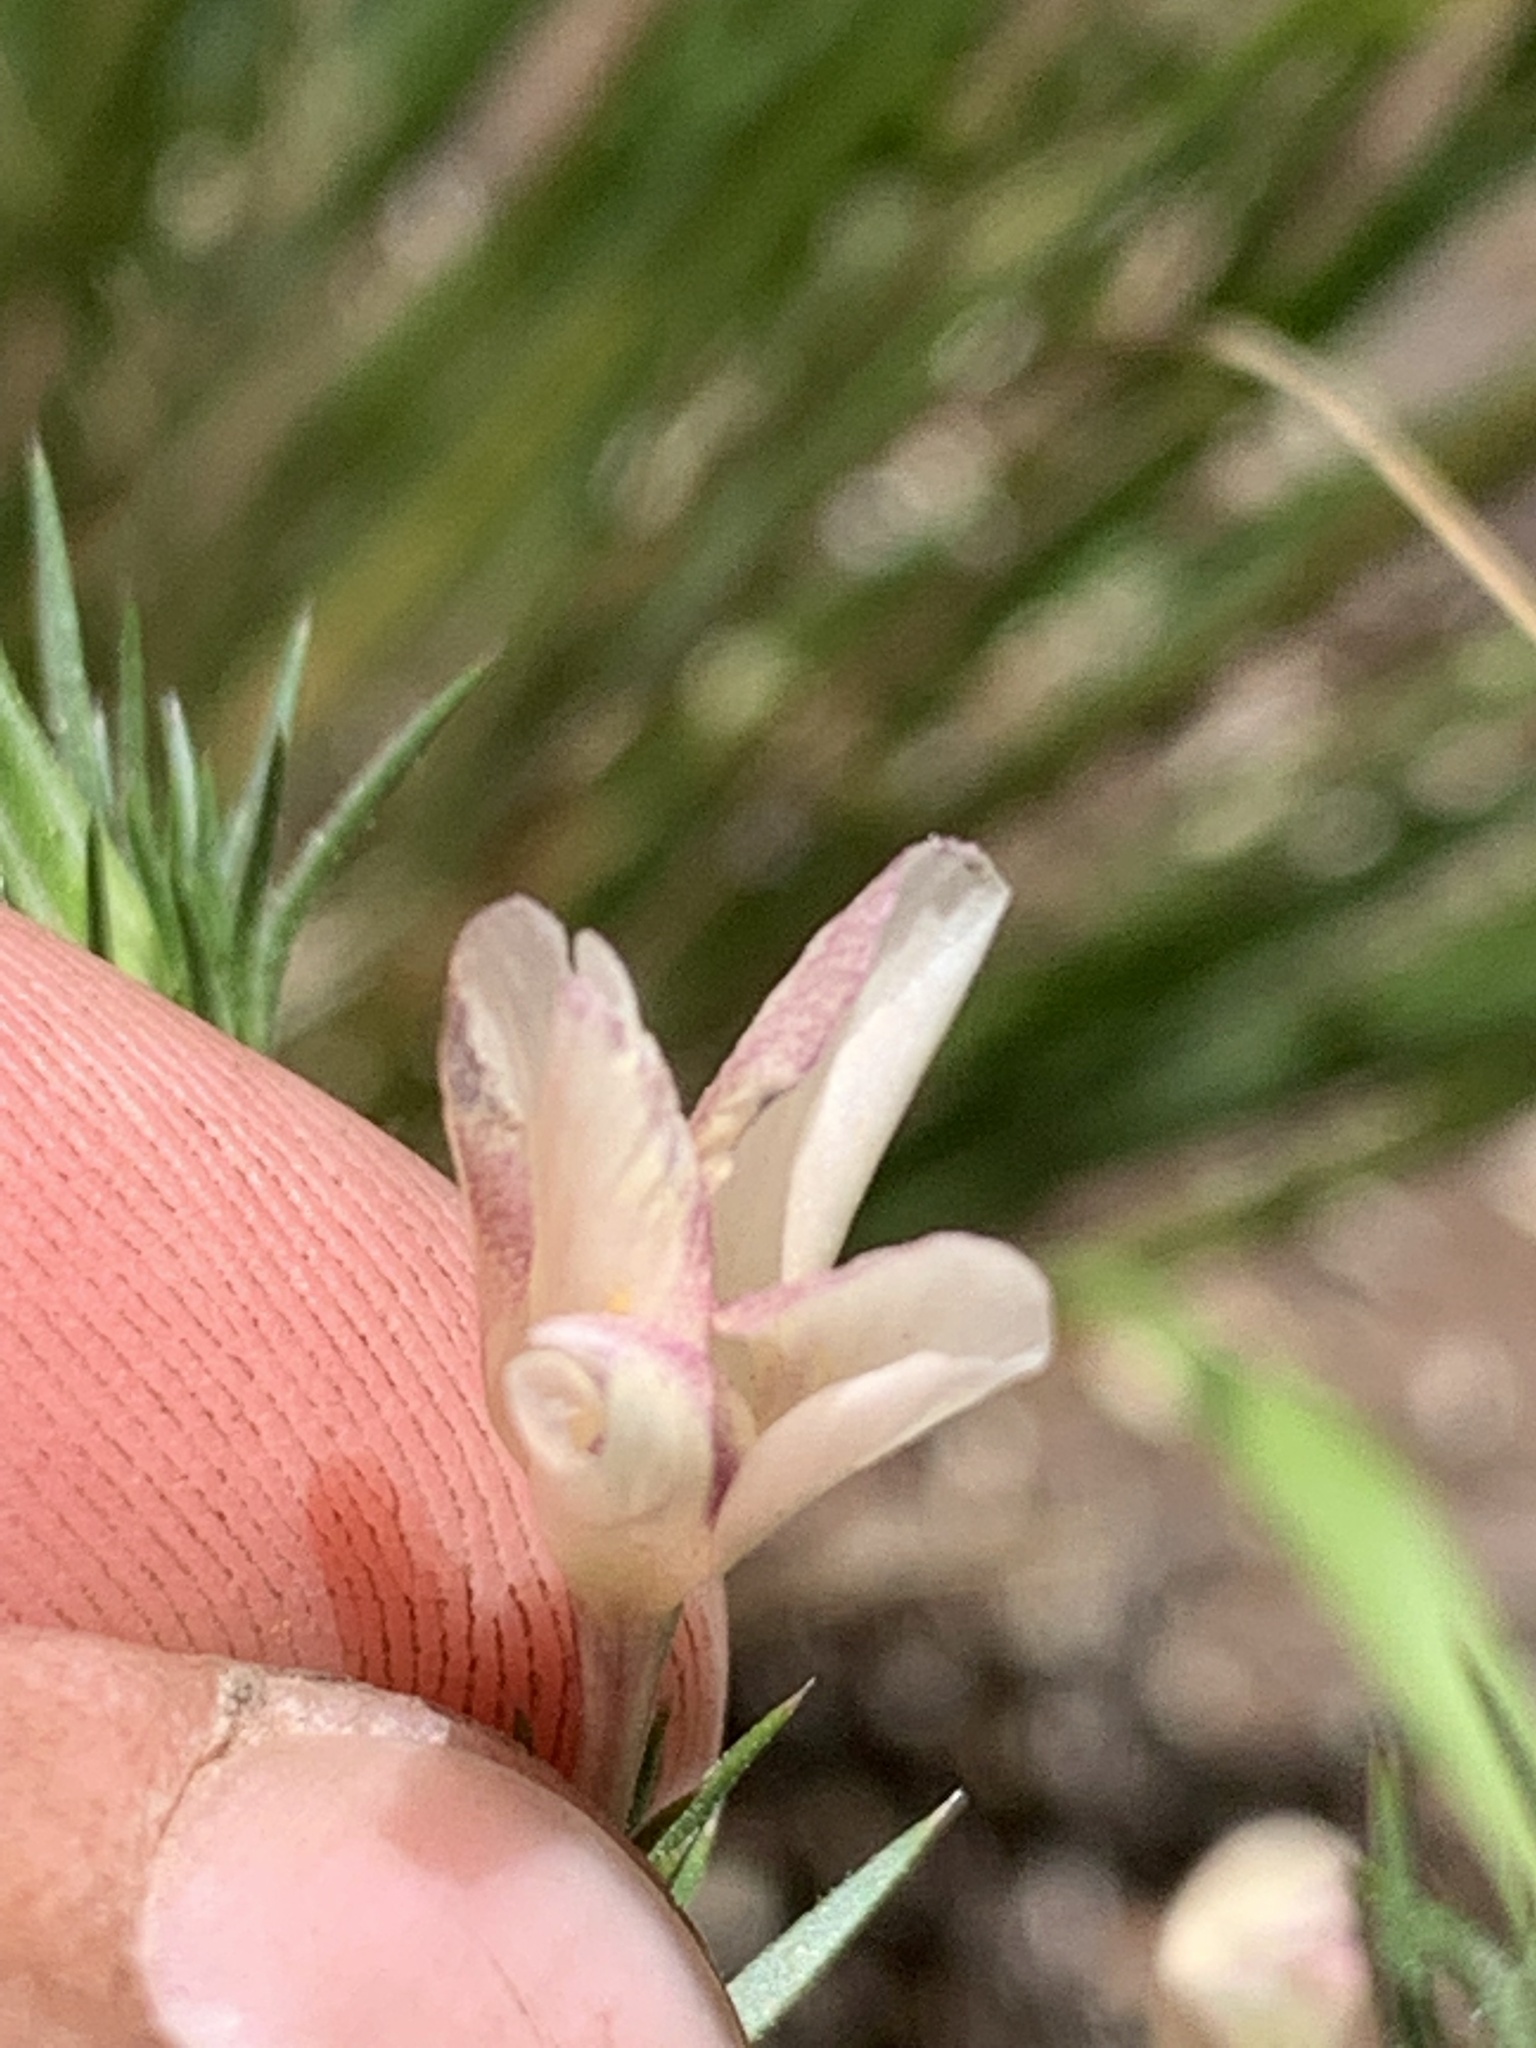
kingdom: Plantae
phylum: Tracheophyta
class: Magnoliopsida
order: Ericales
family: Polemoniaceae
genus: Linanthus
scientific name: Linanthus pungens
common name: Granite prickly phlox
